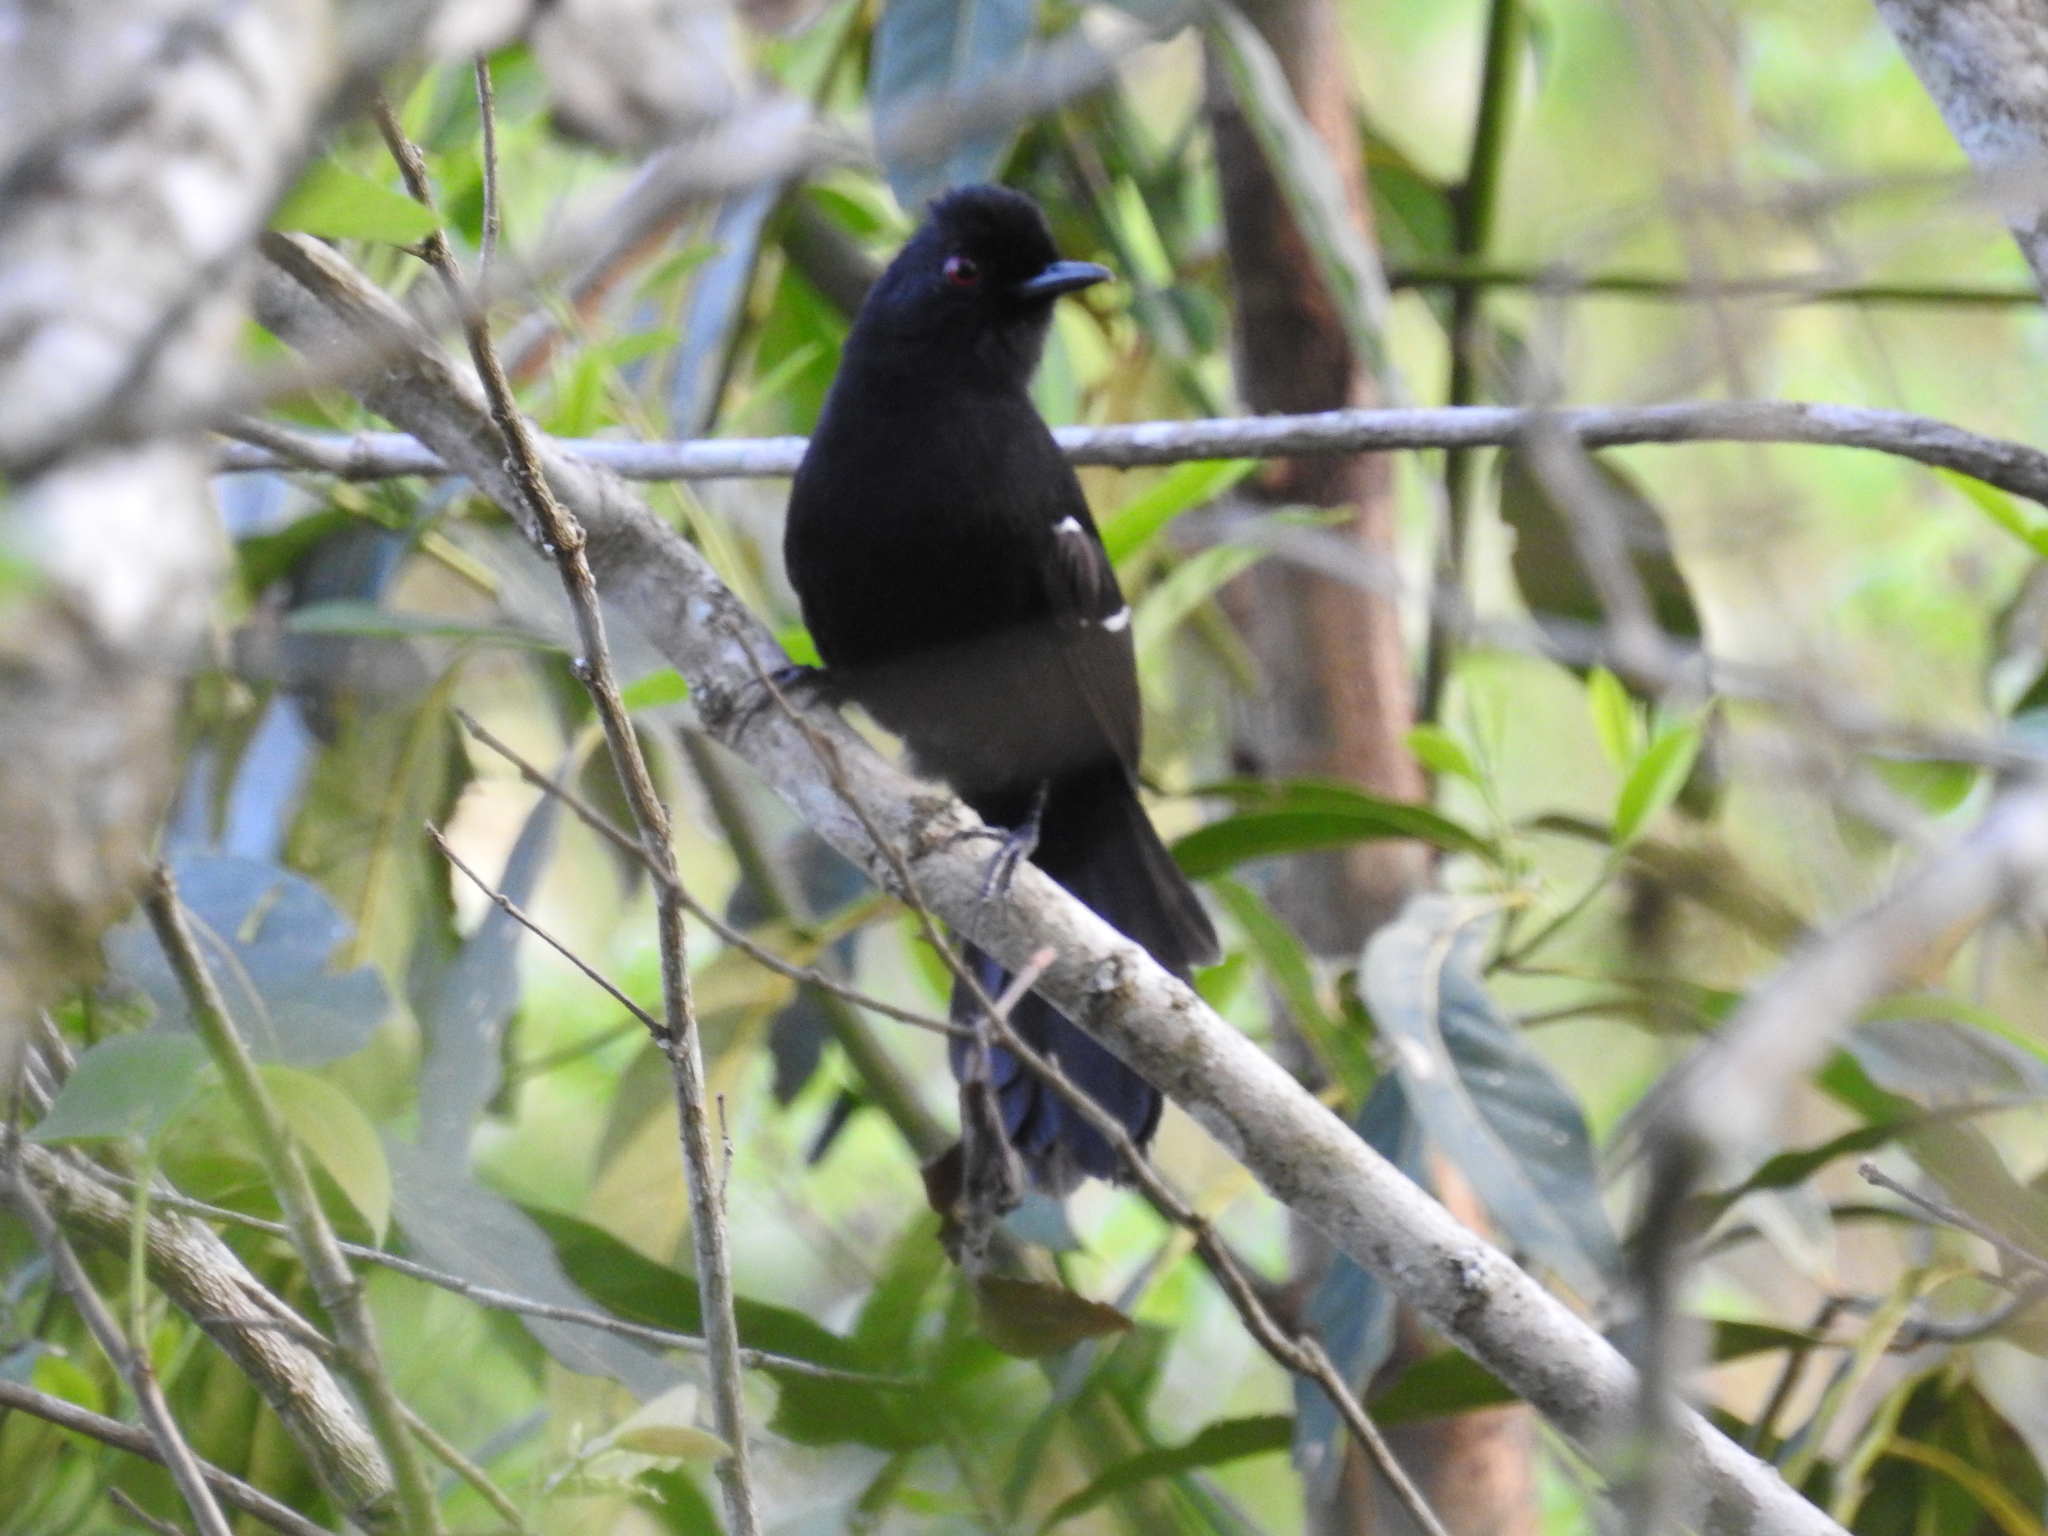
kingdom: Animalia
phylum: Chordata
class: Aves
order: Passeriformes
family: Thamnophilidae
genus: Pyriglena
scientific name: Pyriglena leucoptera
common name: White-shouldered fire-eye
